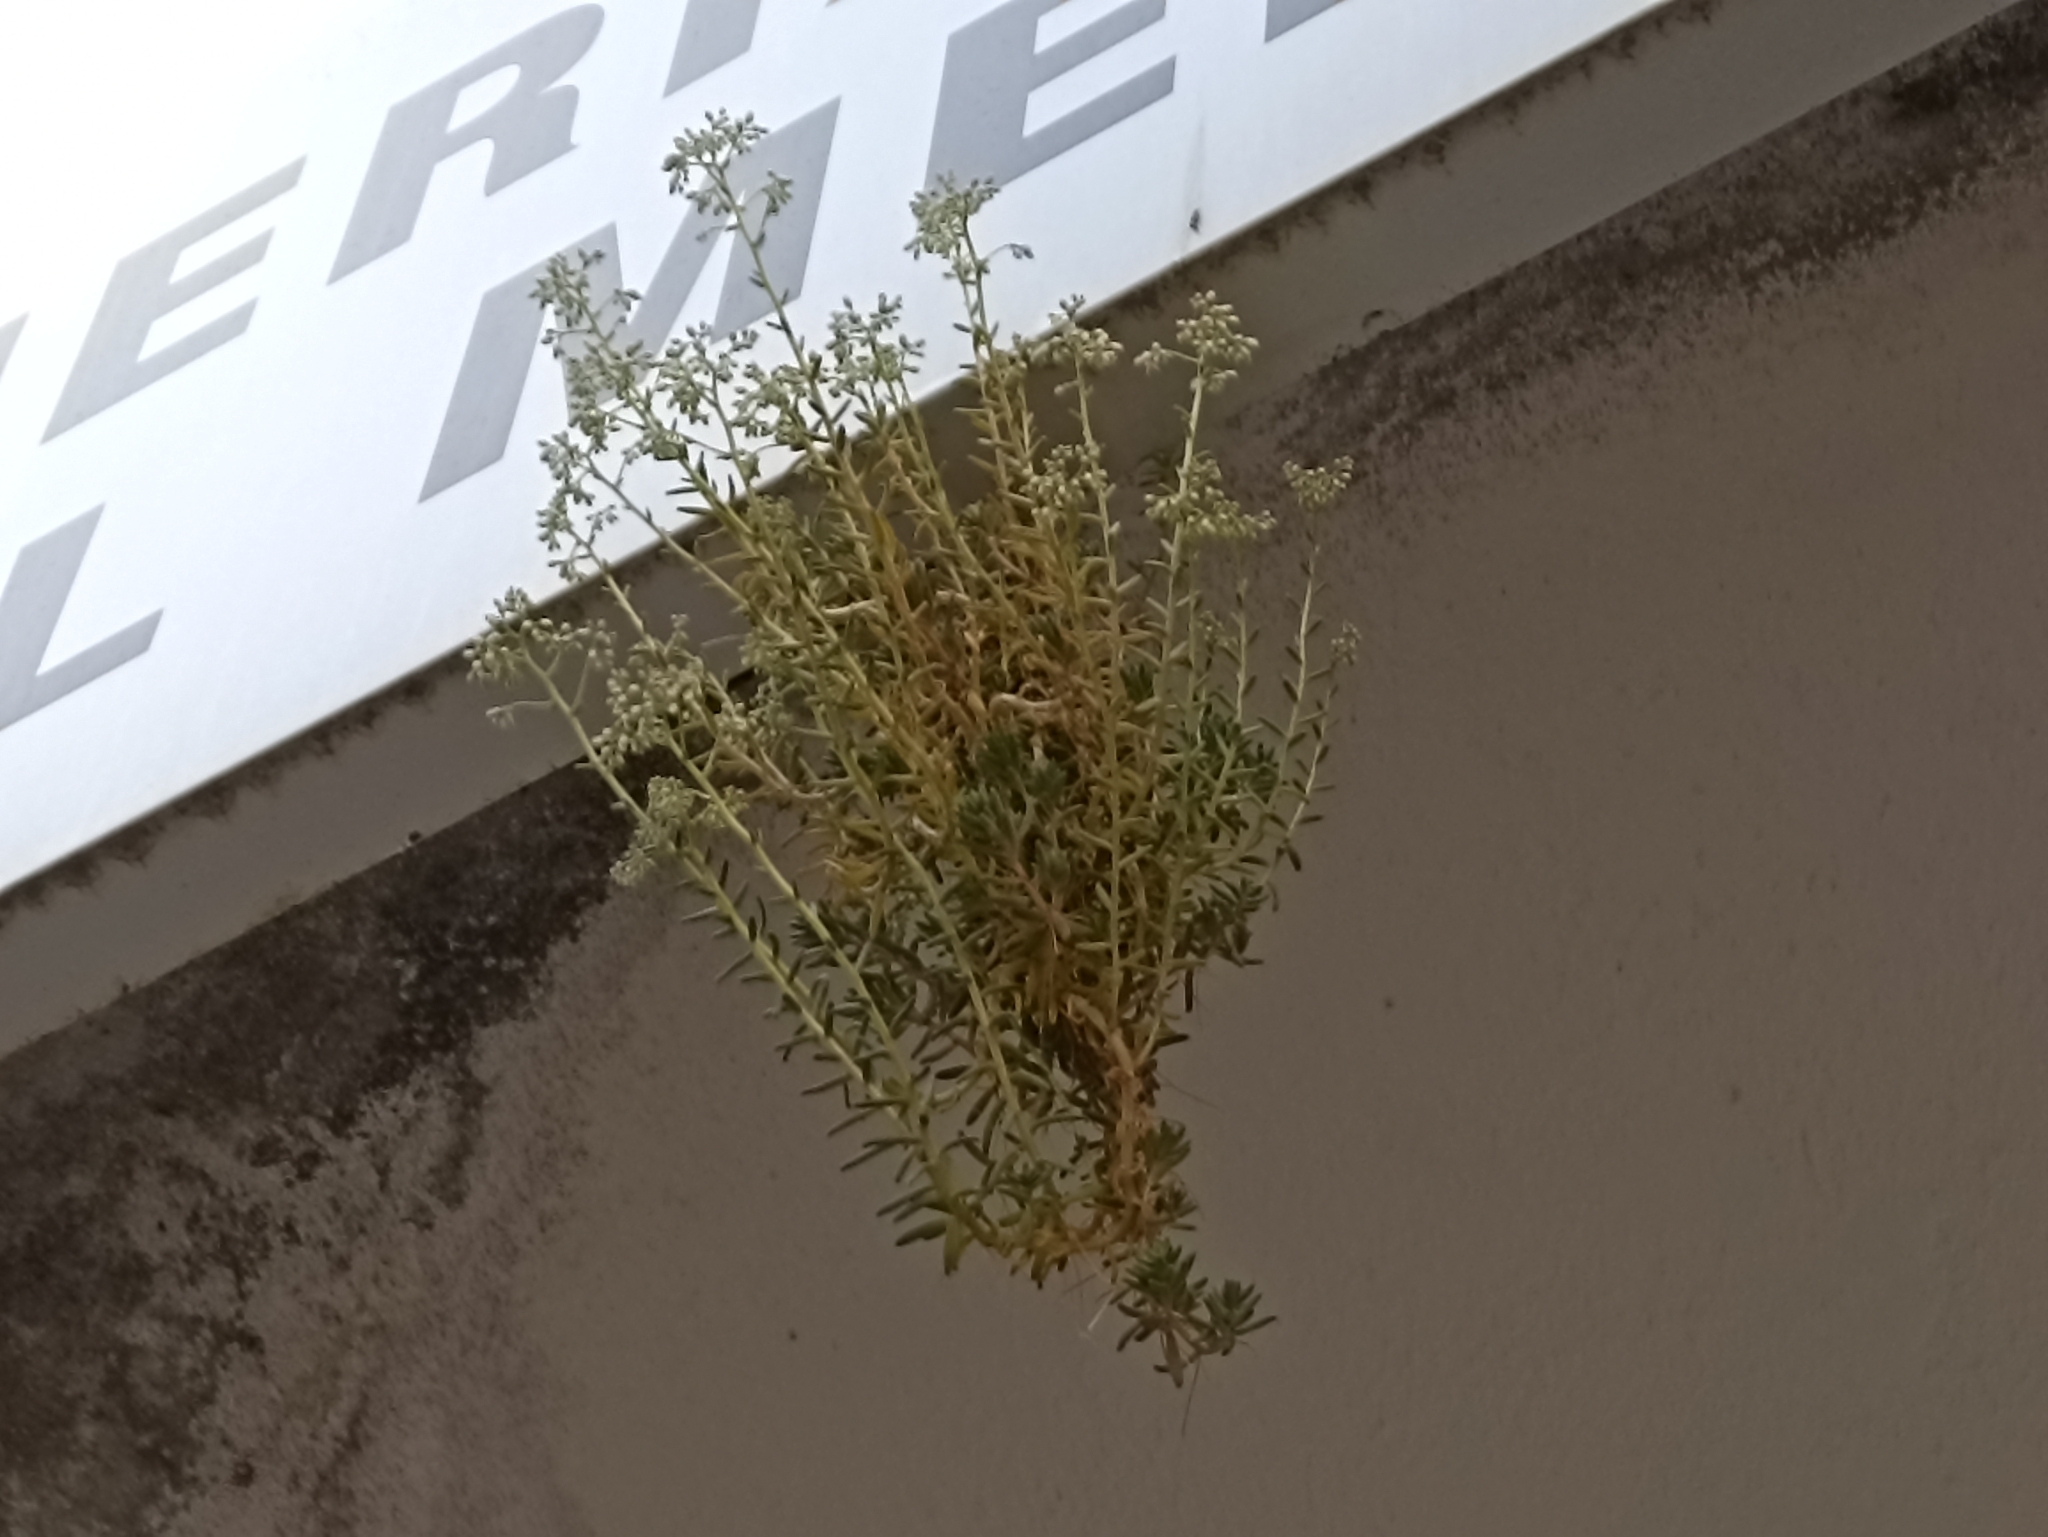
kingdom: Plantae
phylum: Tracheophyta
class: Magnoliopsida
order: Saxifragales
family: Crassulaceae
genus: Sedum
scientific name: Sedum album
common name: White stonecrop
